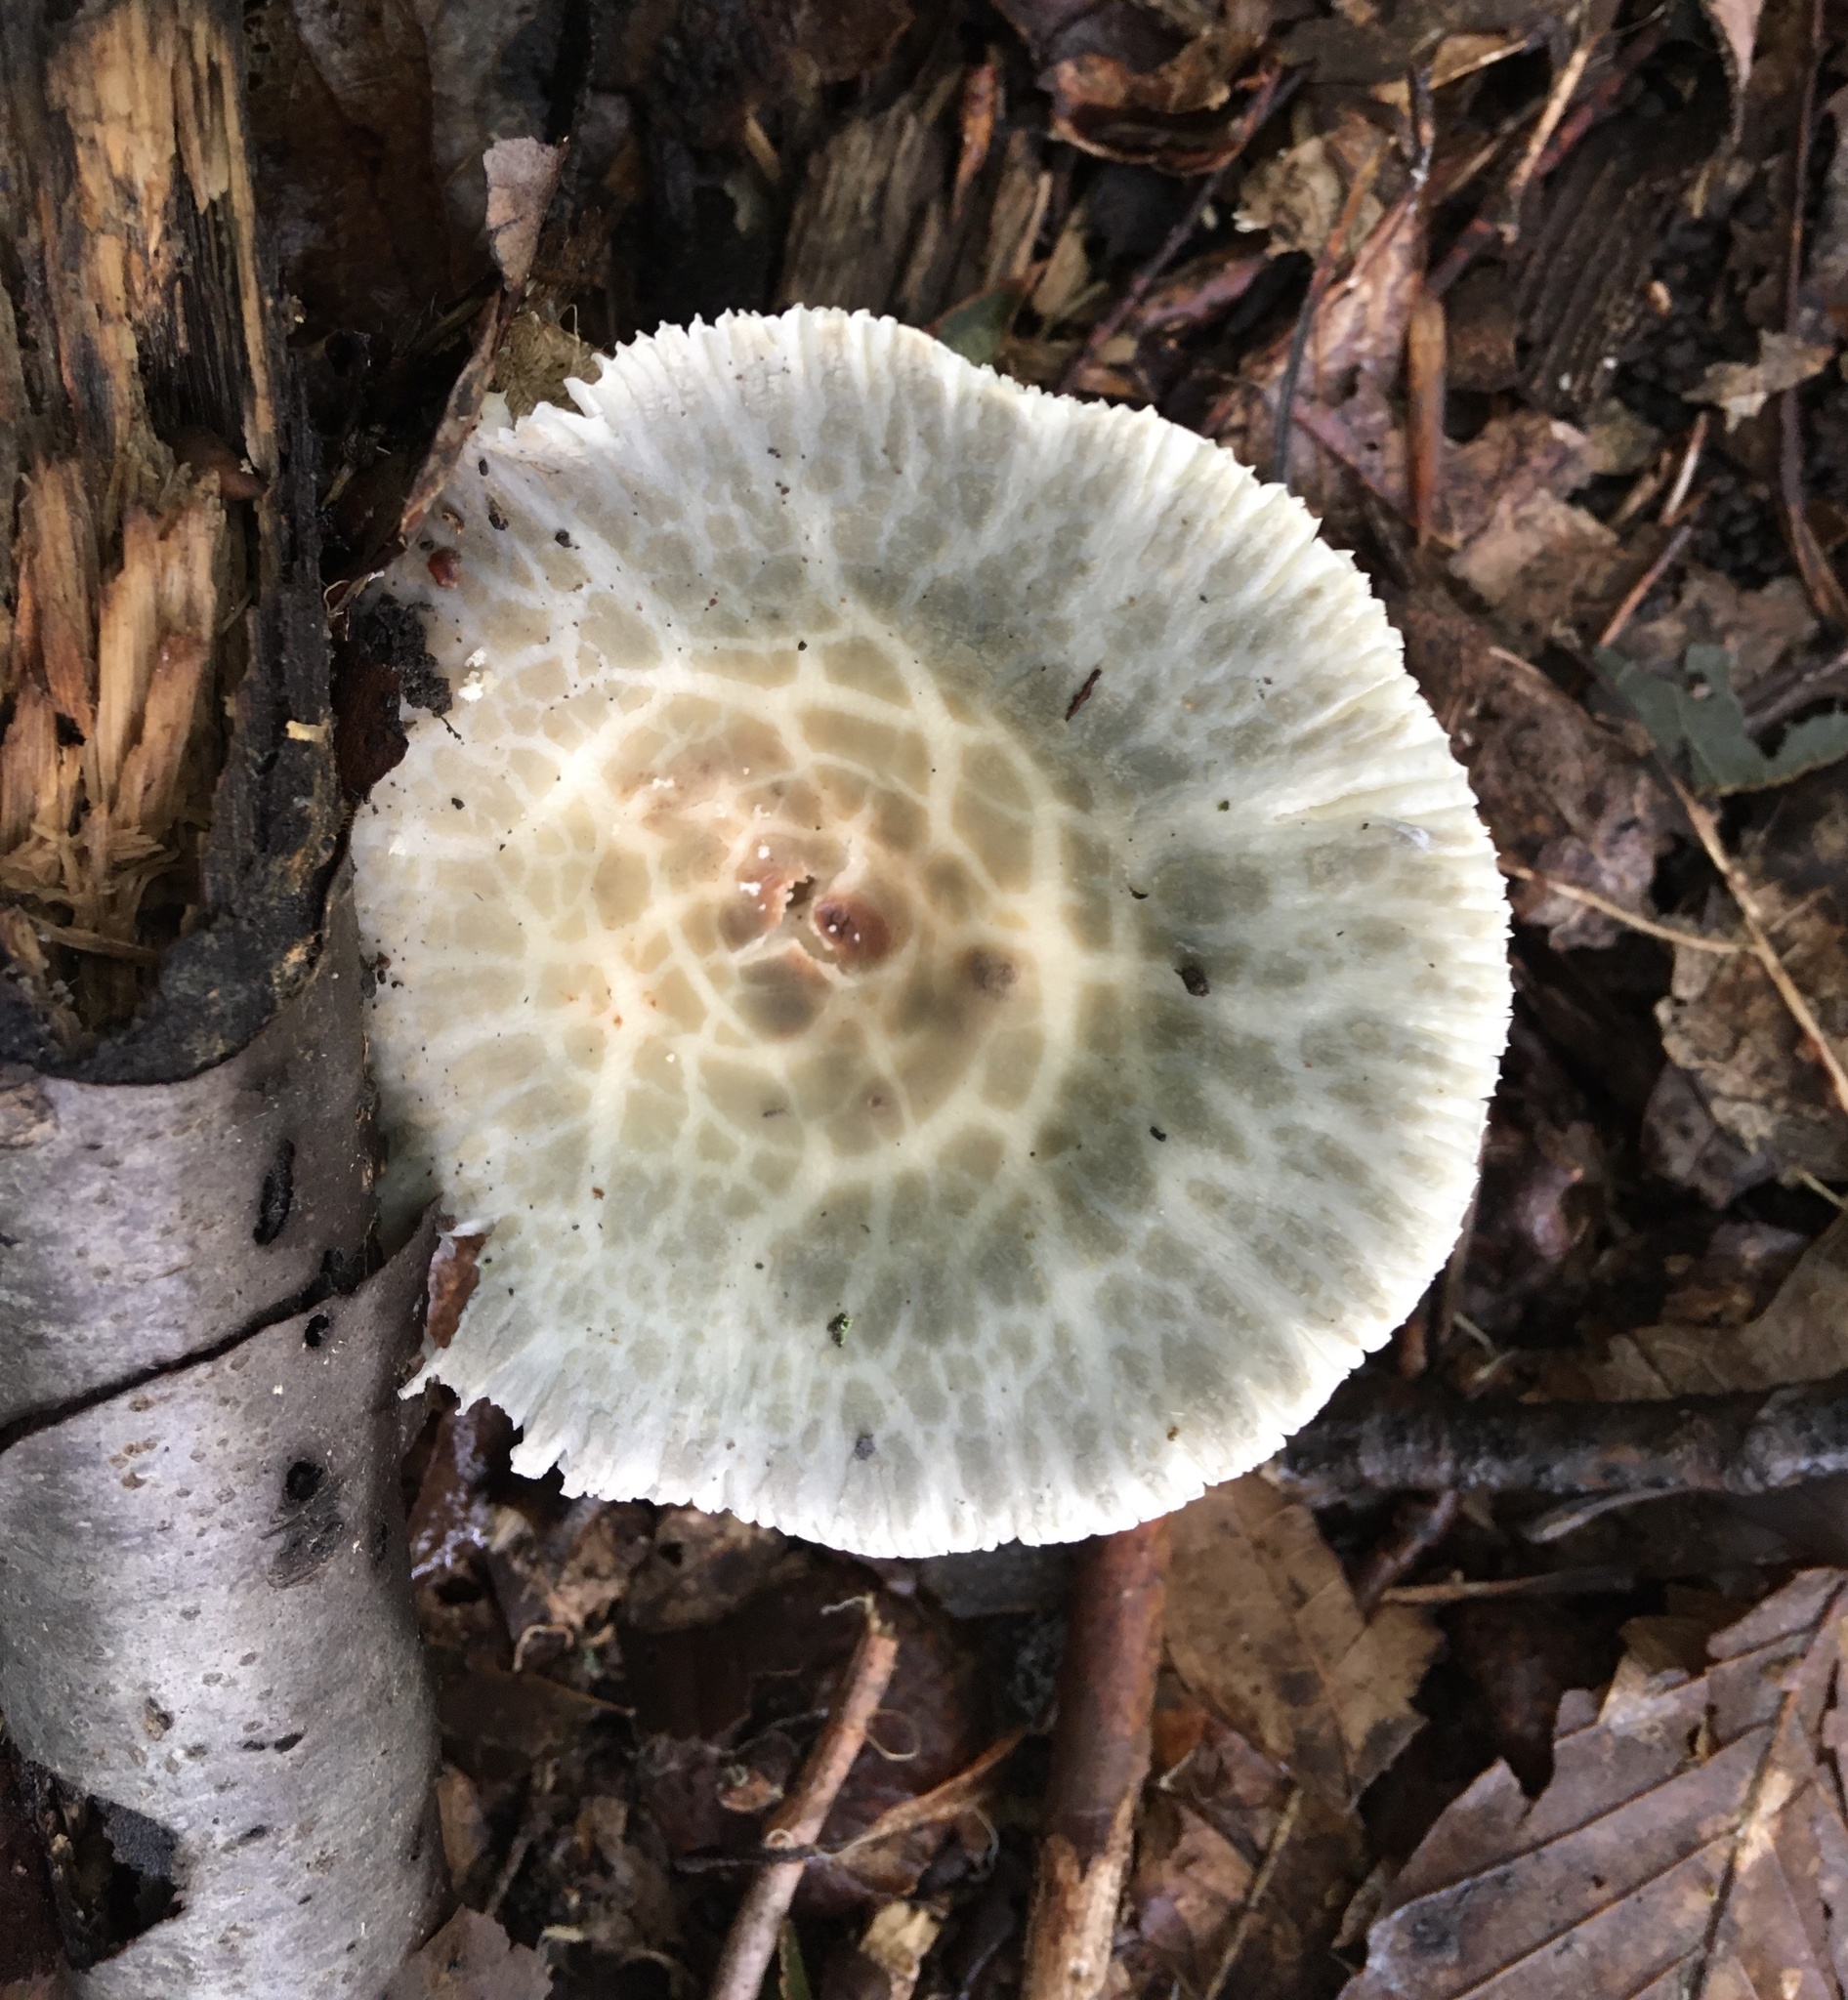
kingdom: Fungi
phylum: Basidiomycota
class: Agaricomycetes
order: Russulales
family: Russulaceae
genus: Russula
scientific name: Russula parvovirescens
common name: Blue-green cracking russula
